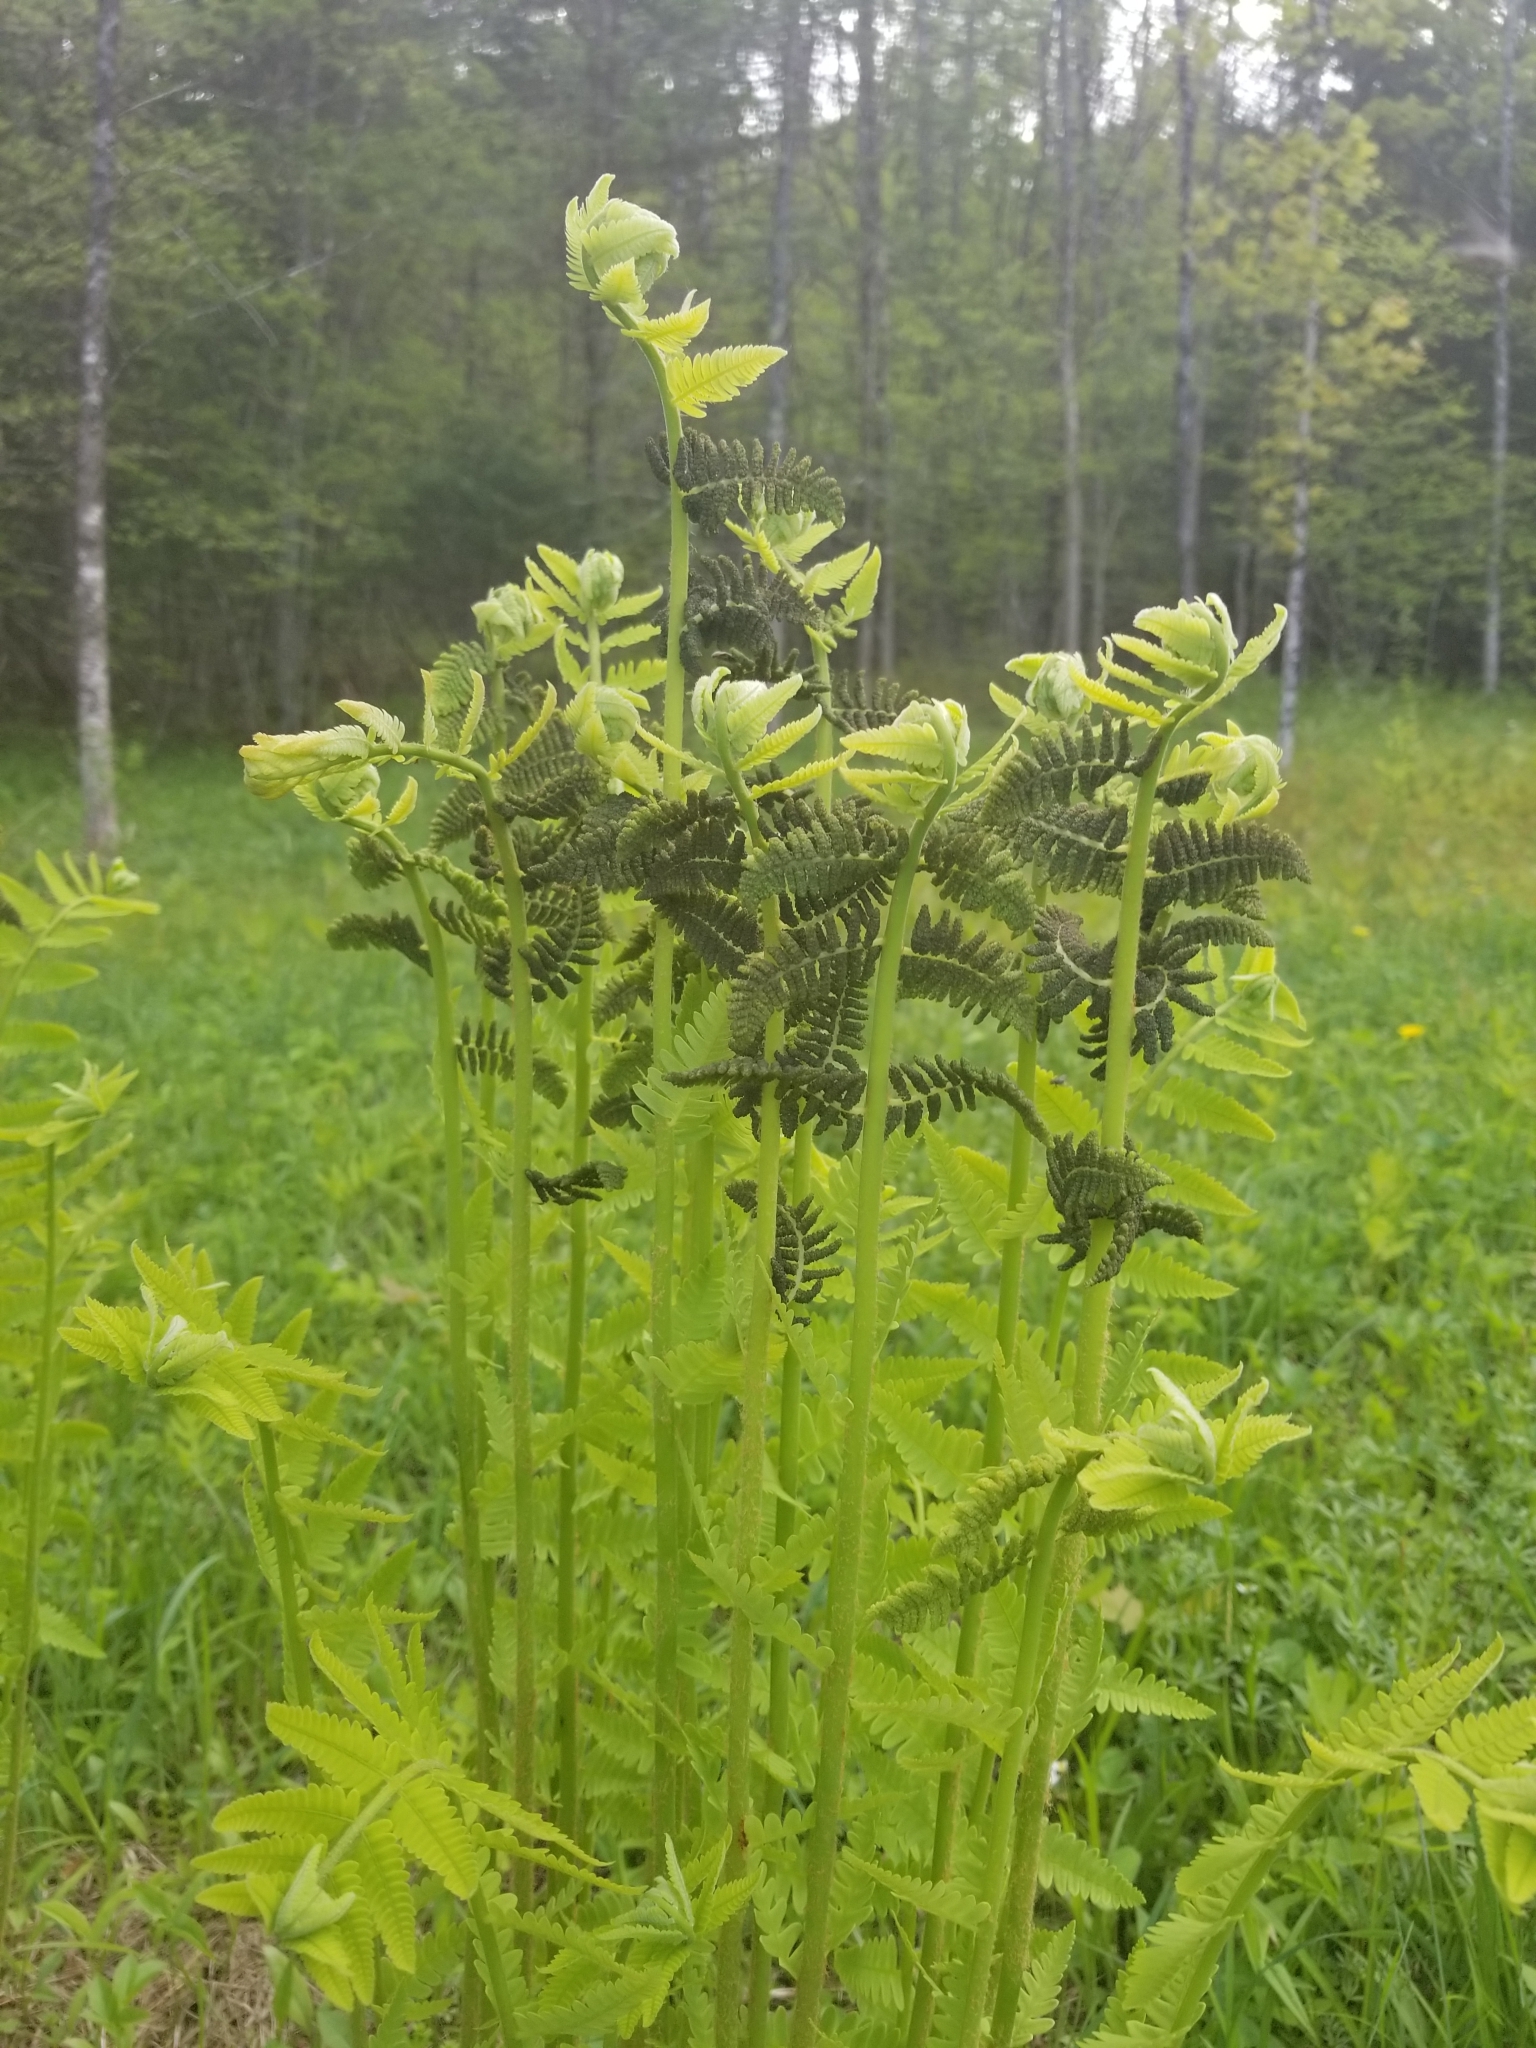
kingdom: Plantae
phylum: Tracheophyta
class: Polypodiopsida
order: Osmundales
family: Osmundaceae
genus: Claytosmunda
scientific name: Claytosmunda claytoniana
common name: Clayton's fern
